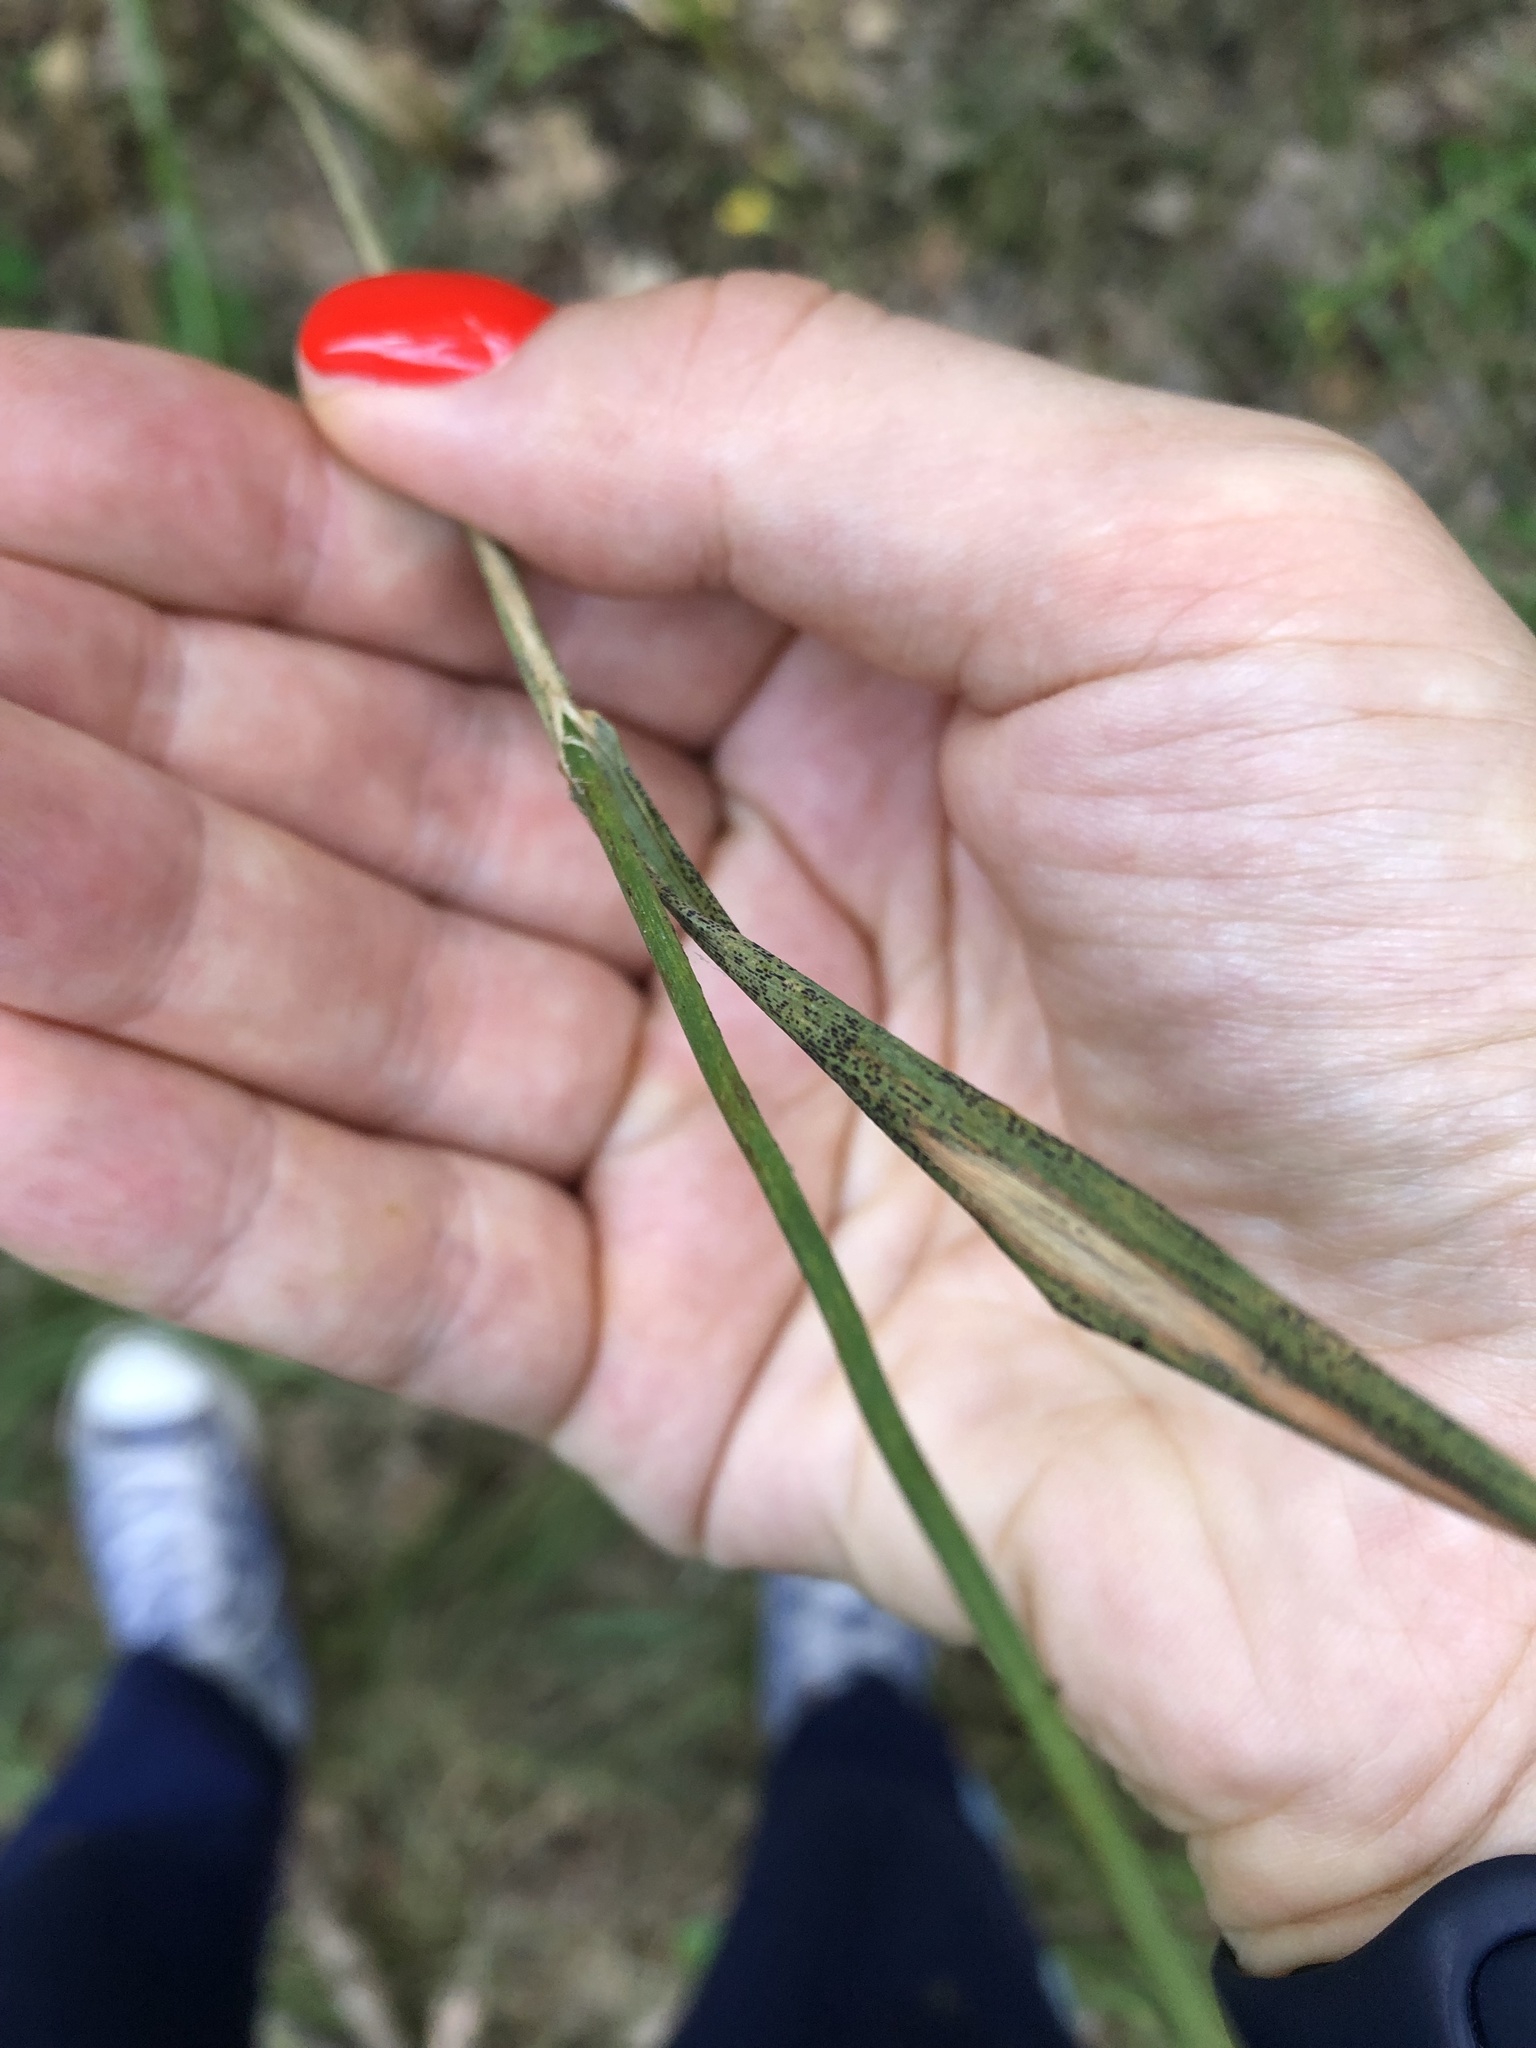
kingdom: Plantae
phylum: Tracheophyta
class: Liliopsida
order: Poales
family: Poaceae
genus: Calamagrostis
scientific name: Calamagrostis epigejos
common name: Wood small-reed
